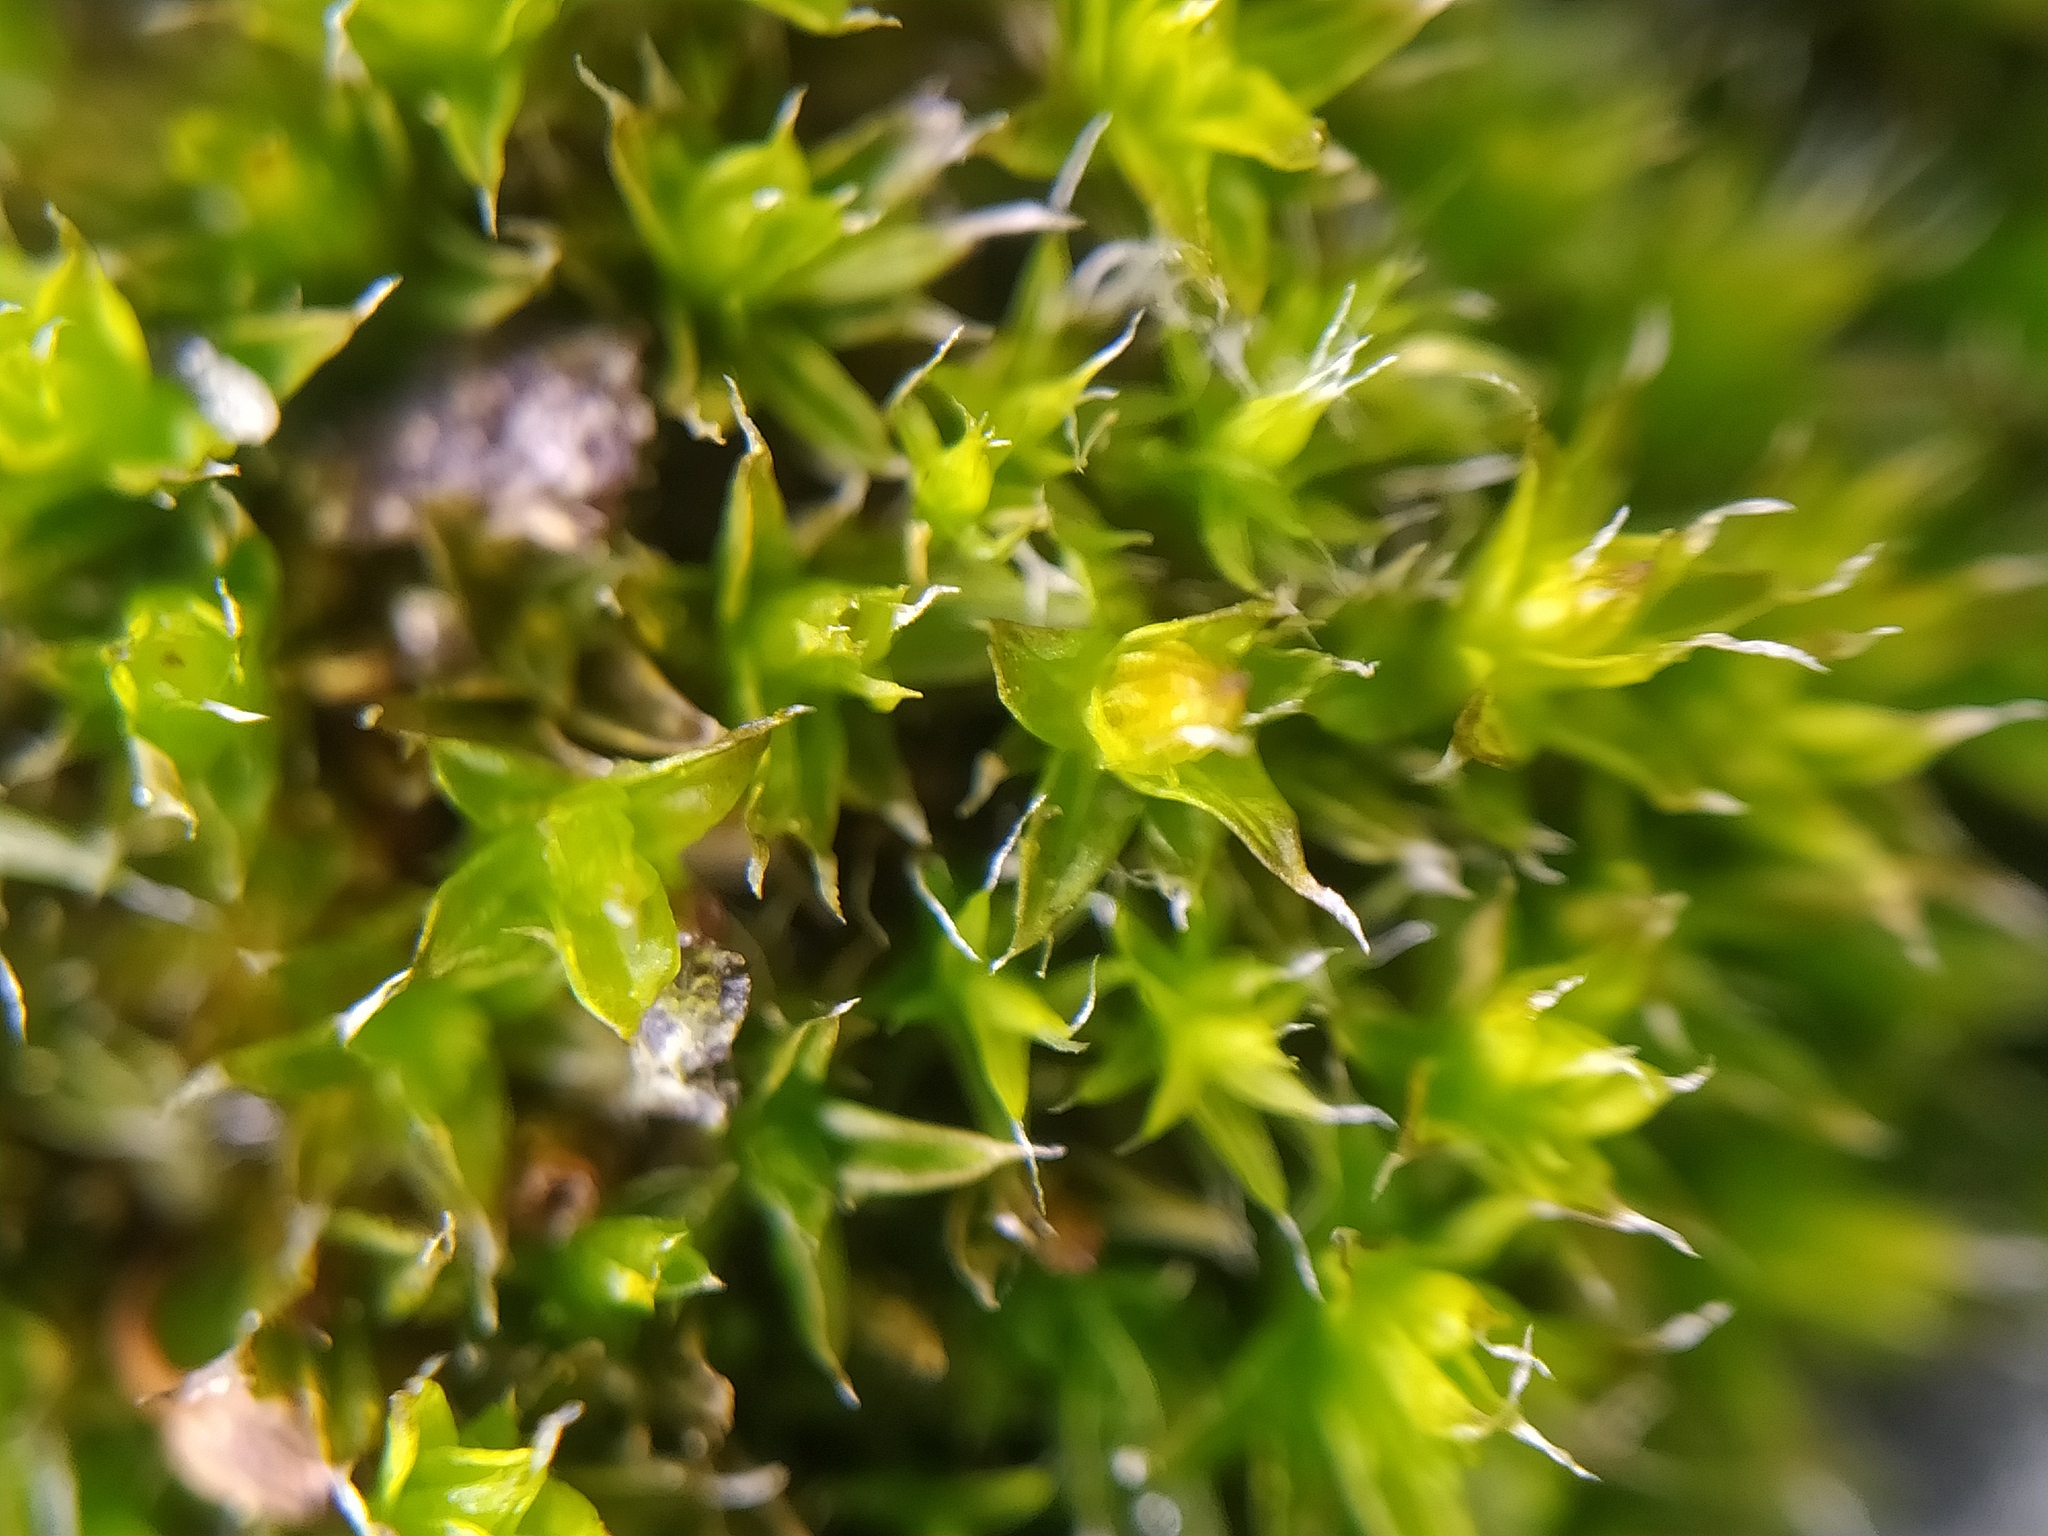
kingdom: Plantae
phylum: Bryophyta
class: Bryopsida
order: Orthotrichales
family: Orthotrichaceae
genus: Orthotrichum
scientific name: Orthotrichum diaphanum
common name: White-tipped bristle-moss
